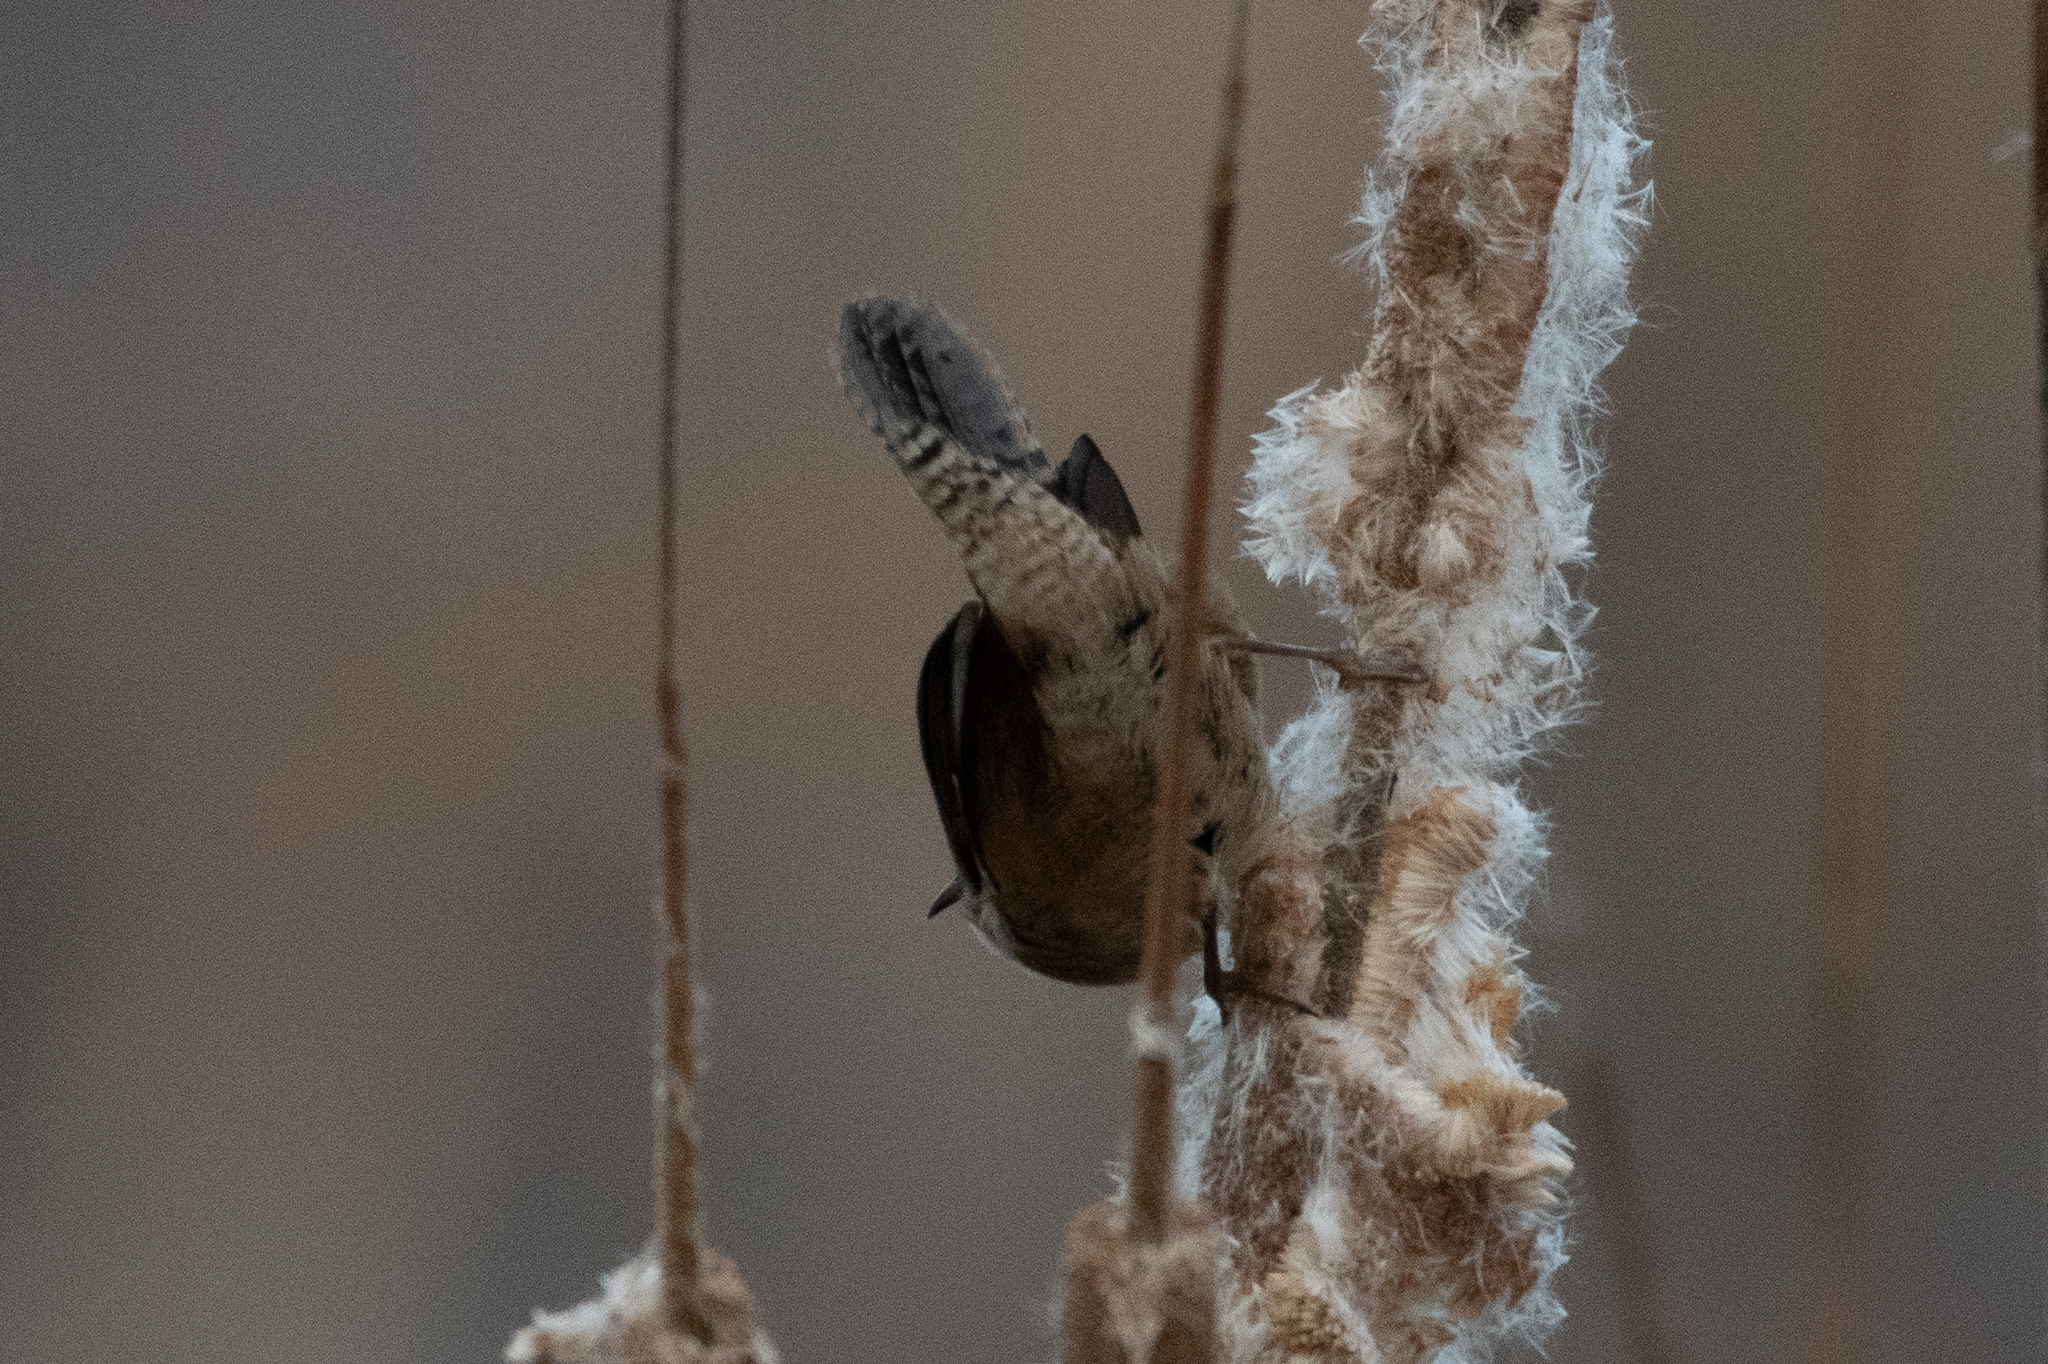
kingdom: Animalia
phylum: Chordata
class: Aves
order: Passeriformes
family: Troglodytidae
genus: Cistothorus
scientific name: Cistothorus palustris
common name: Marsh wren
